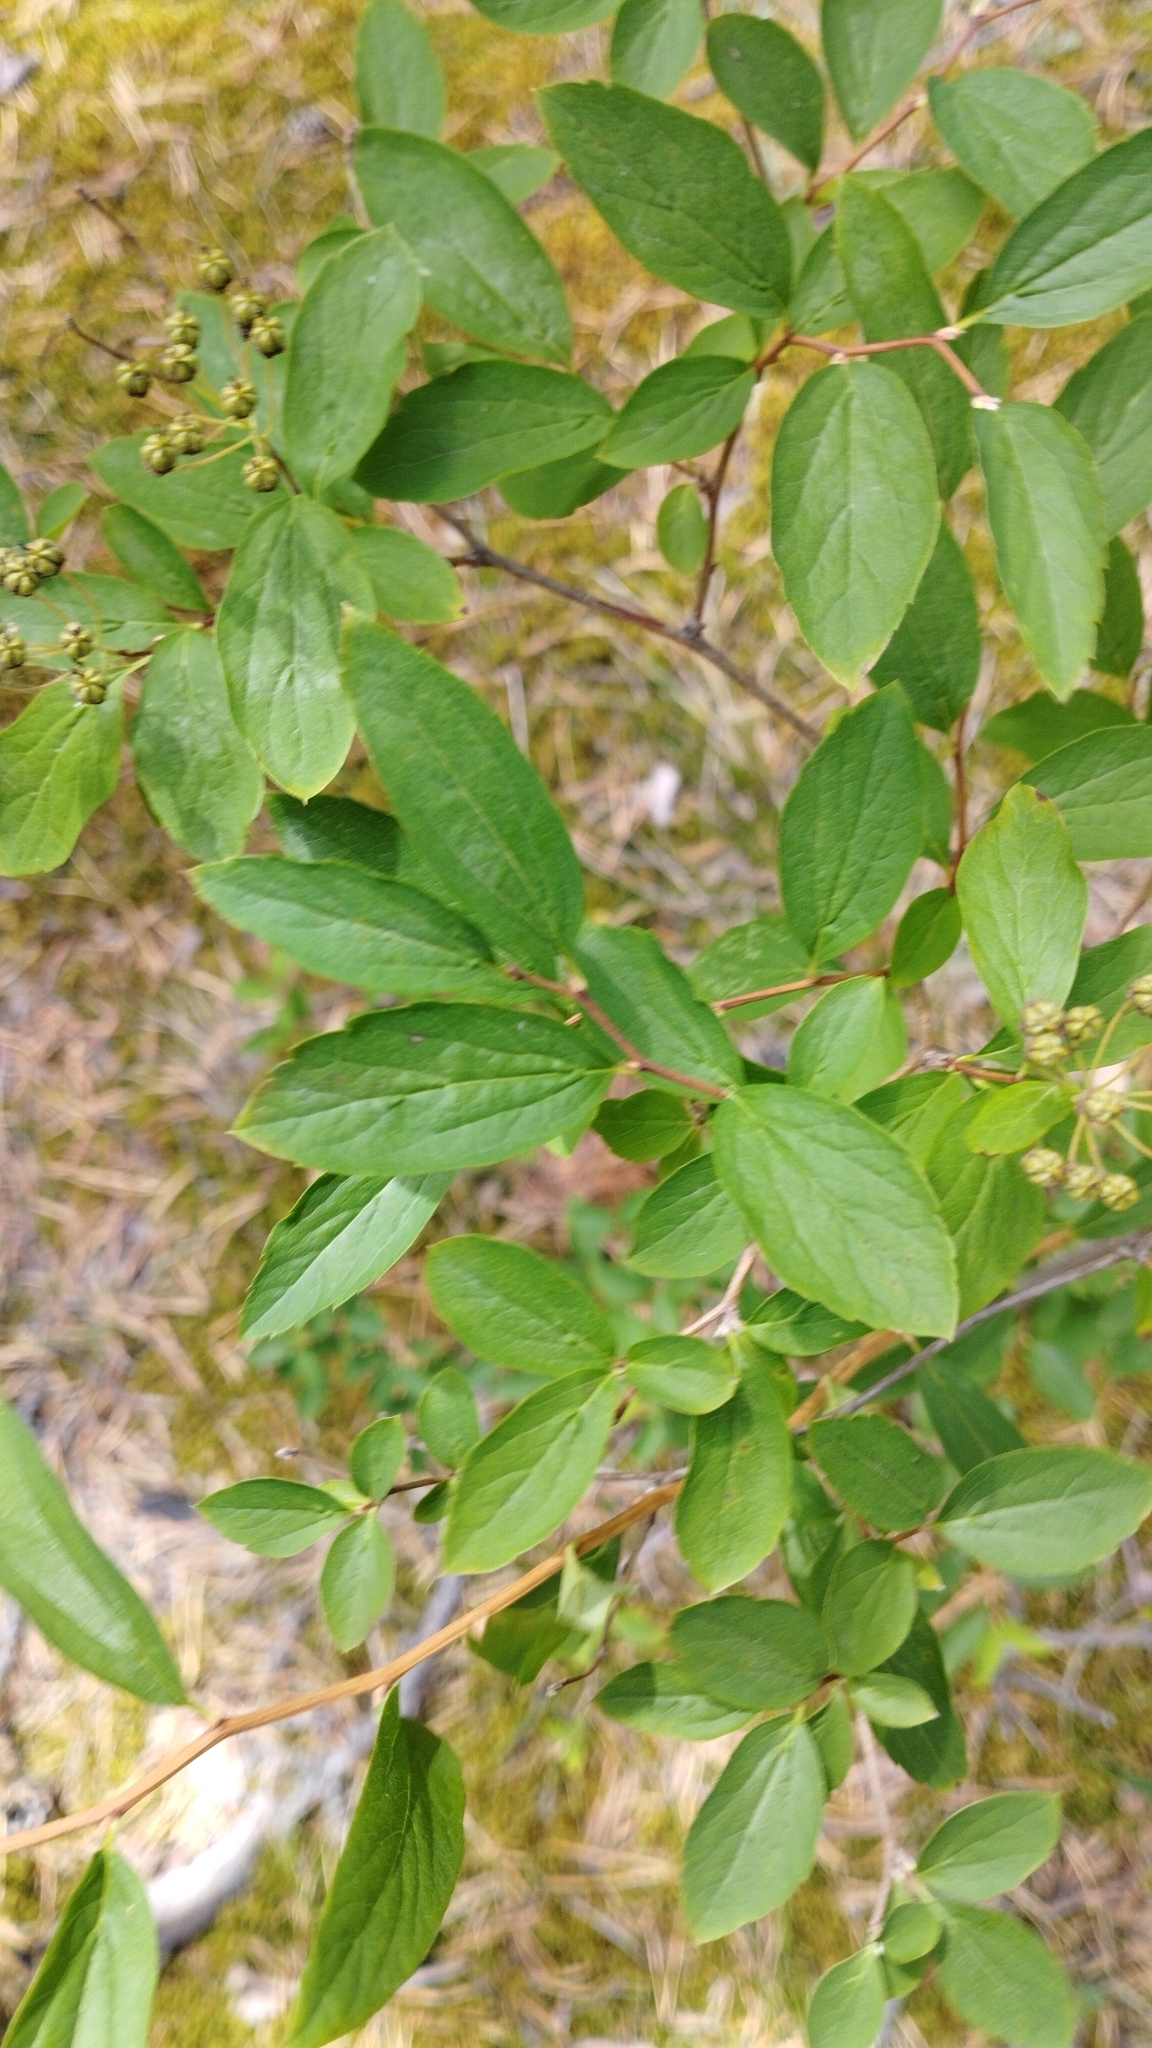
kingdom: Plantae
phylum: Tracheophyta
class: Magnoliopsida
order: Rosales
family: Rosaceae
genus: Spiraea
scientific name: Spiraea flexuosa
